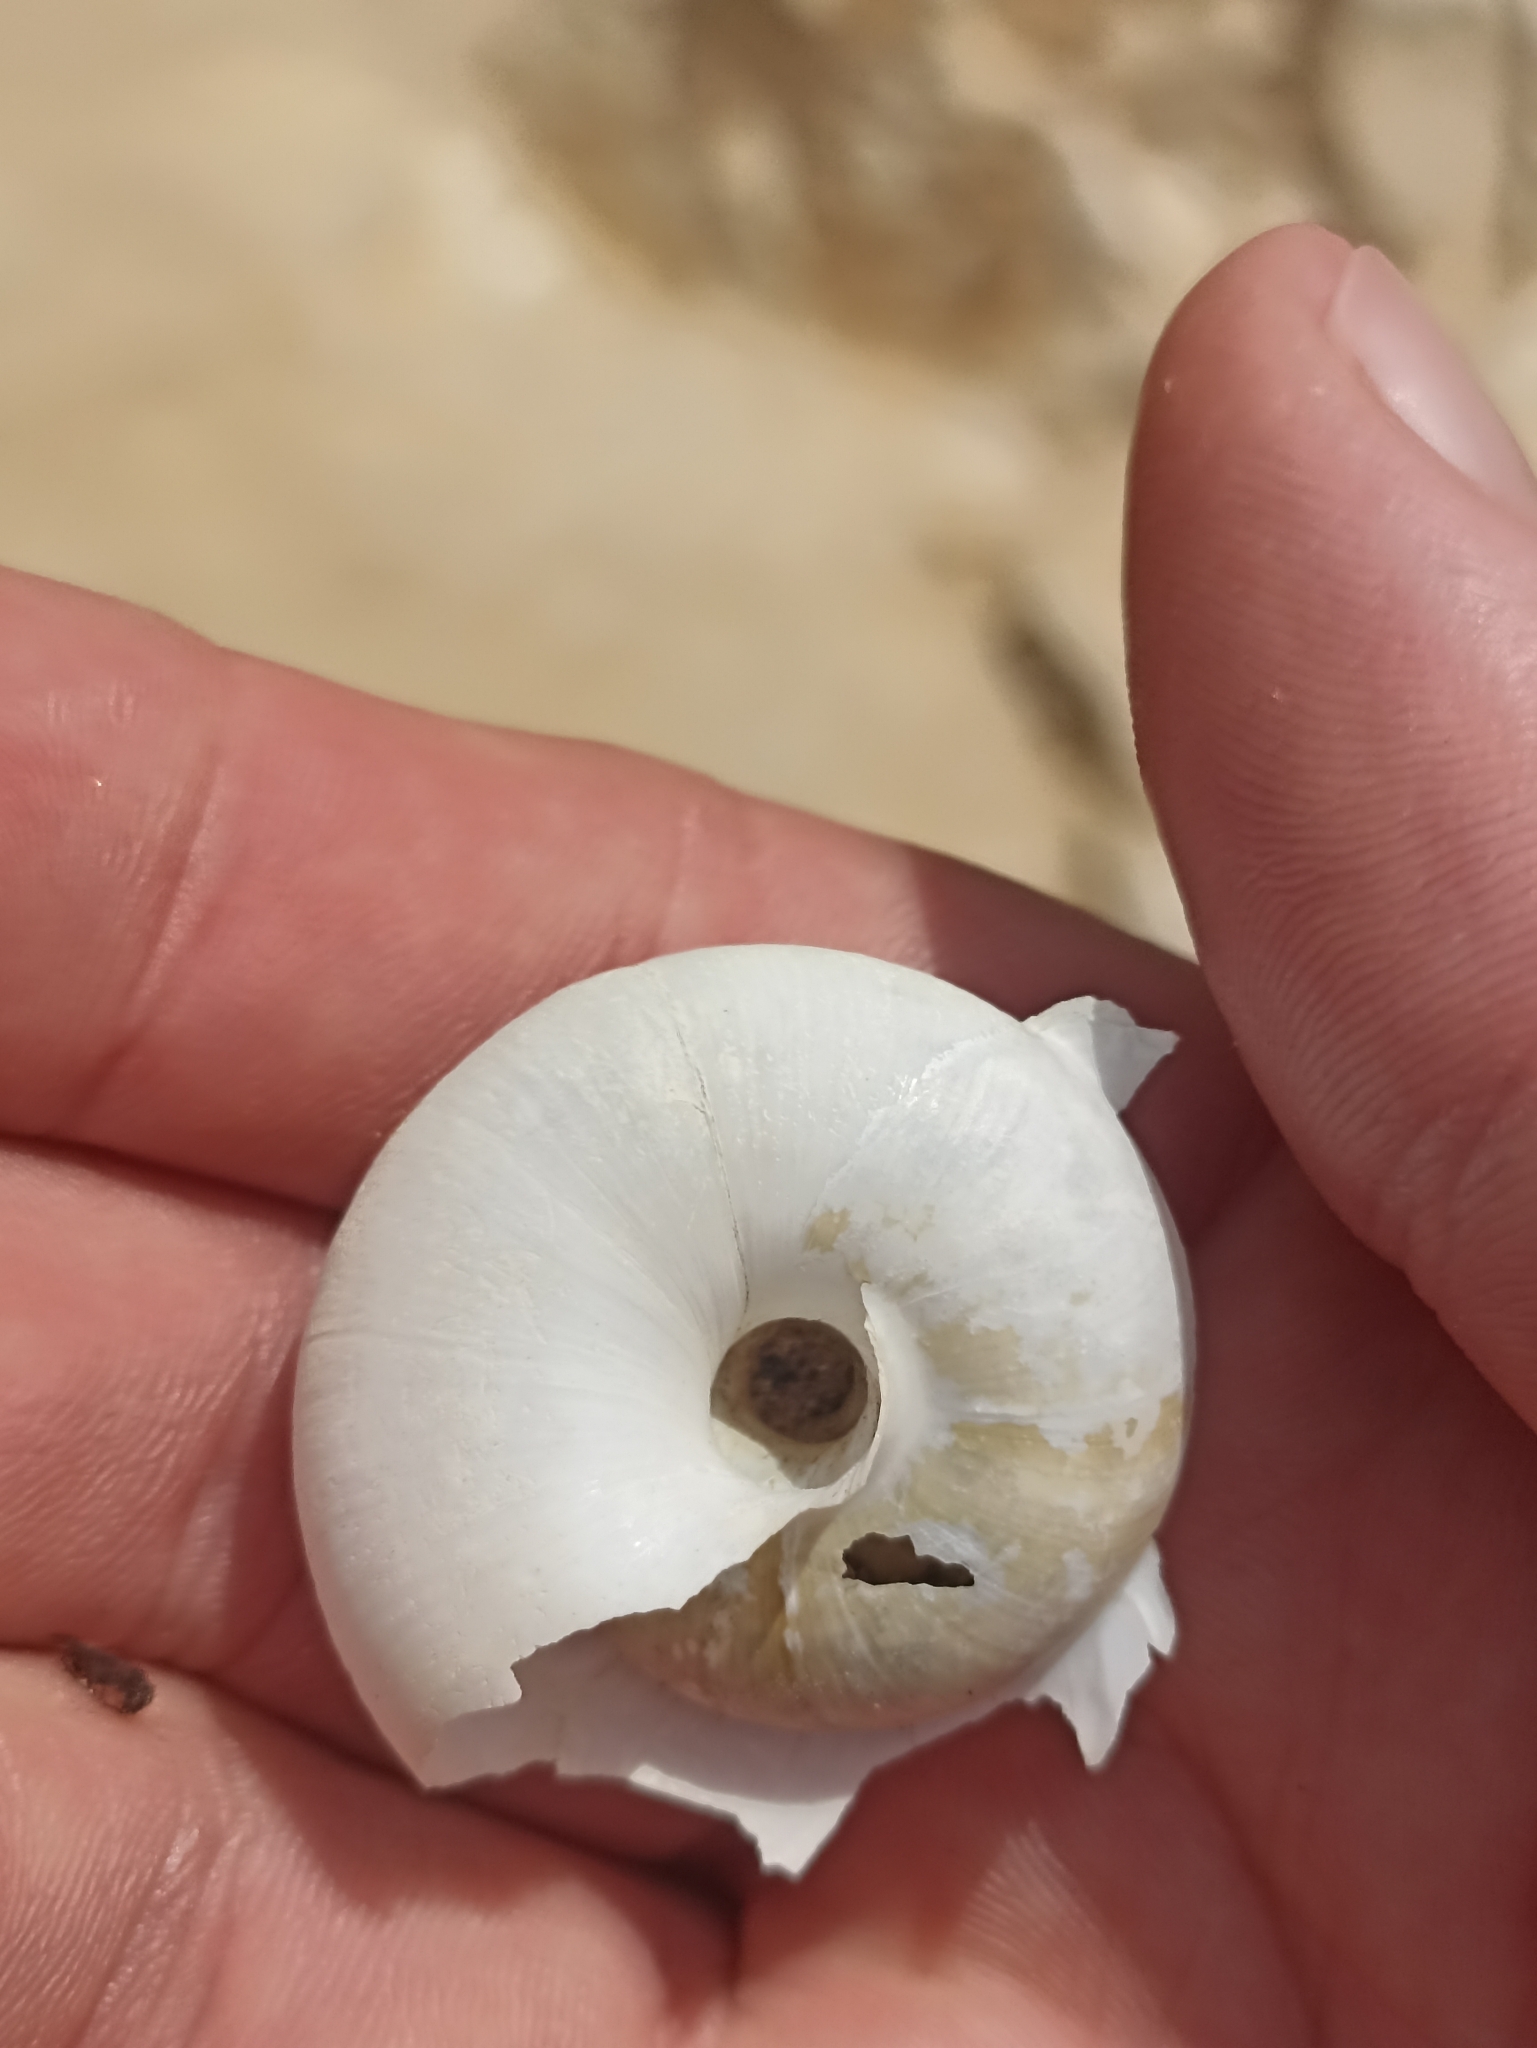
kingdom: Animalia
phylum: Mollusca
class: Gastropoda
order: Stylommatophora
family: Zonitidae
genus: Zonites
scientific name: Zonites algirus
